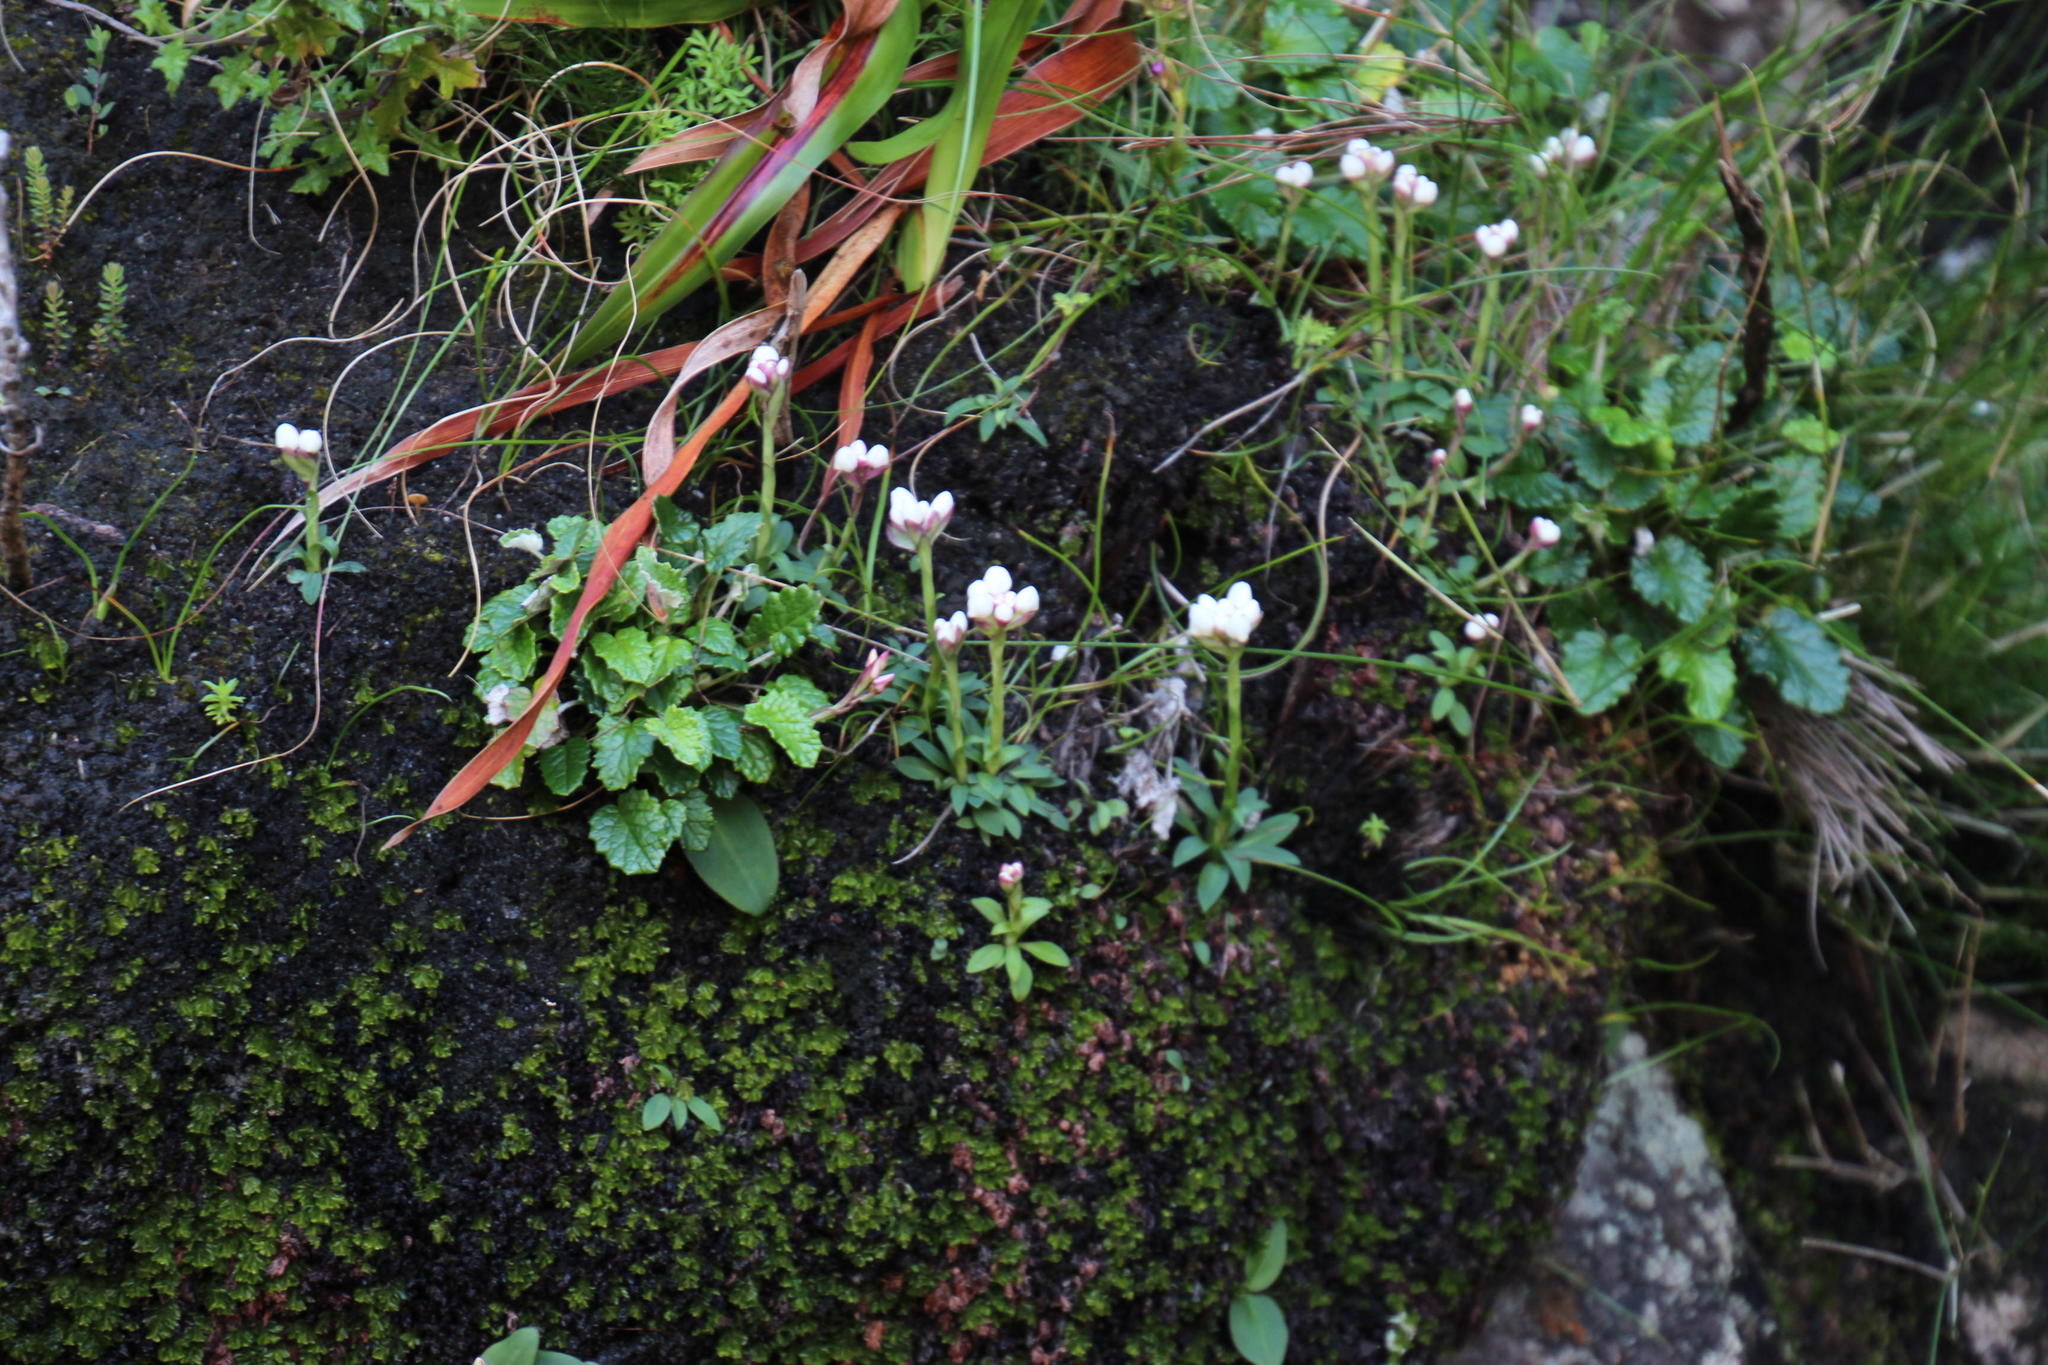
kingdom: Plantae
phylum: Tracheophyta
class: Liliopsida
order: Asparagales
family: Orchidaceae
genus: Disa
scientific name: Disa rosea
